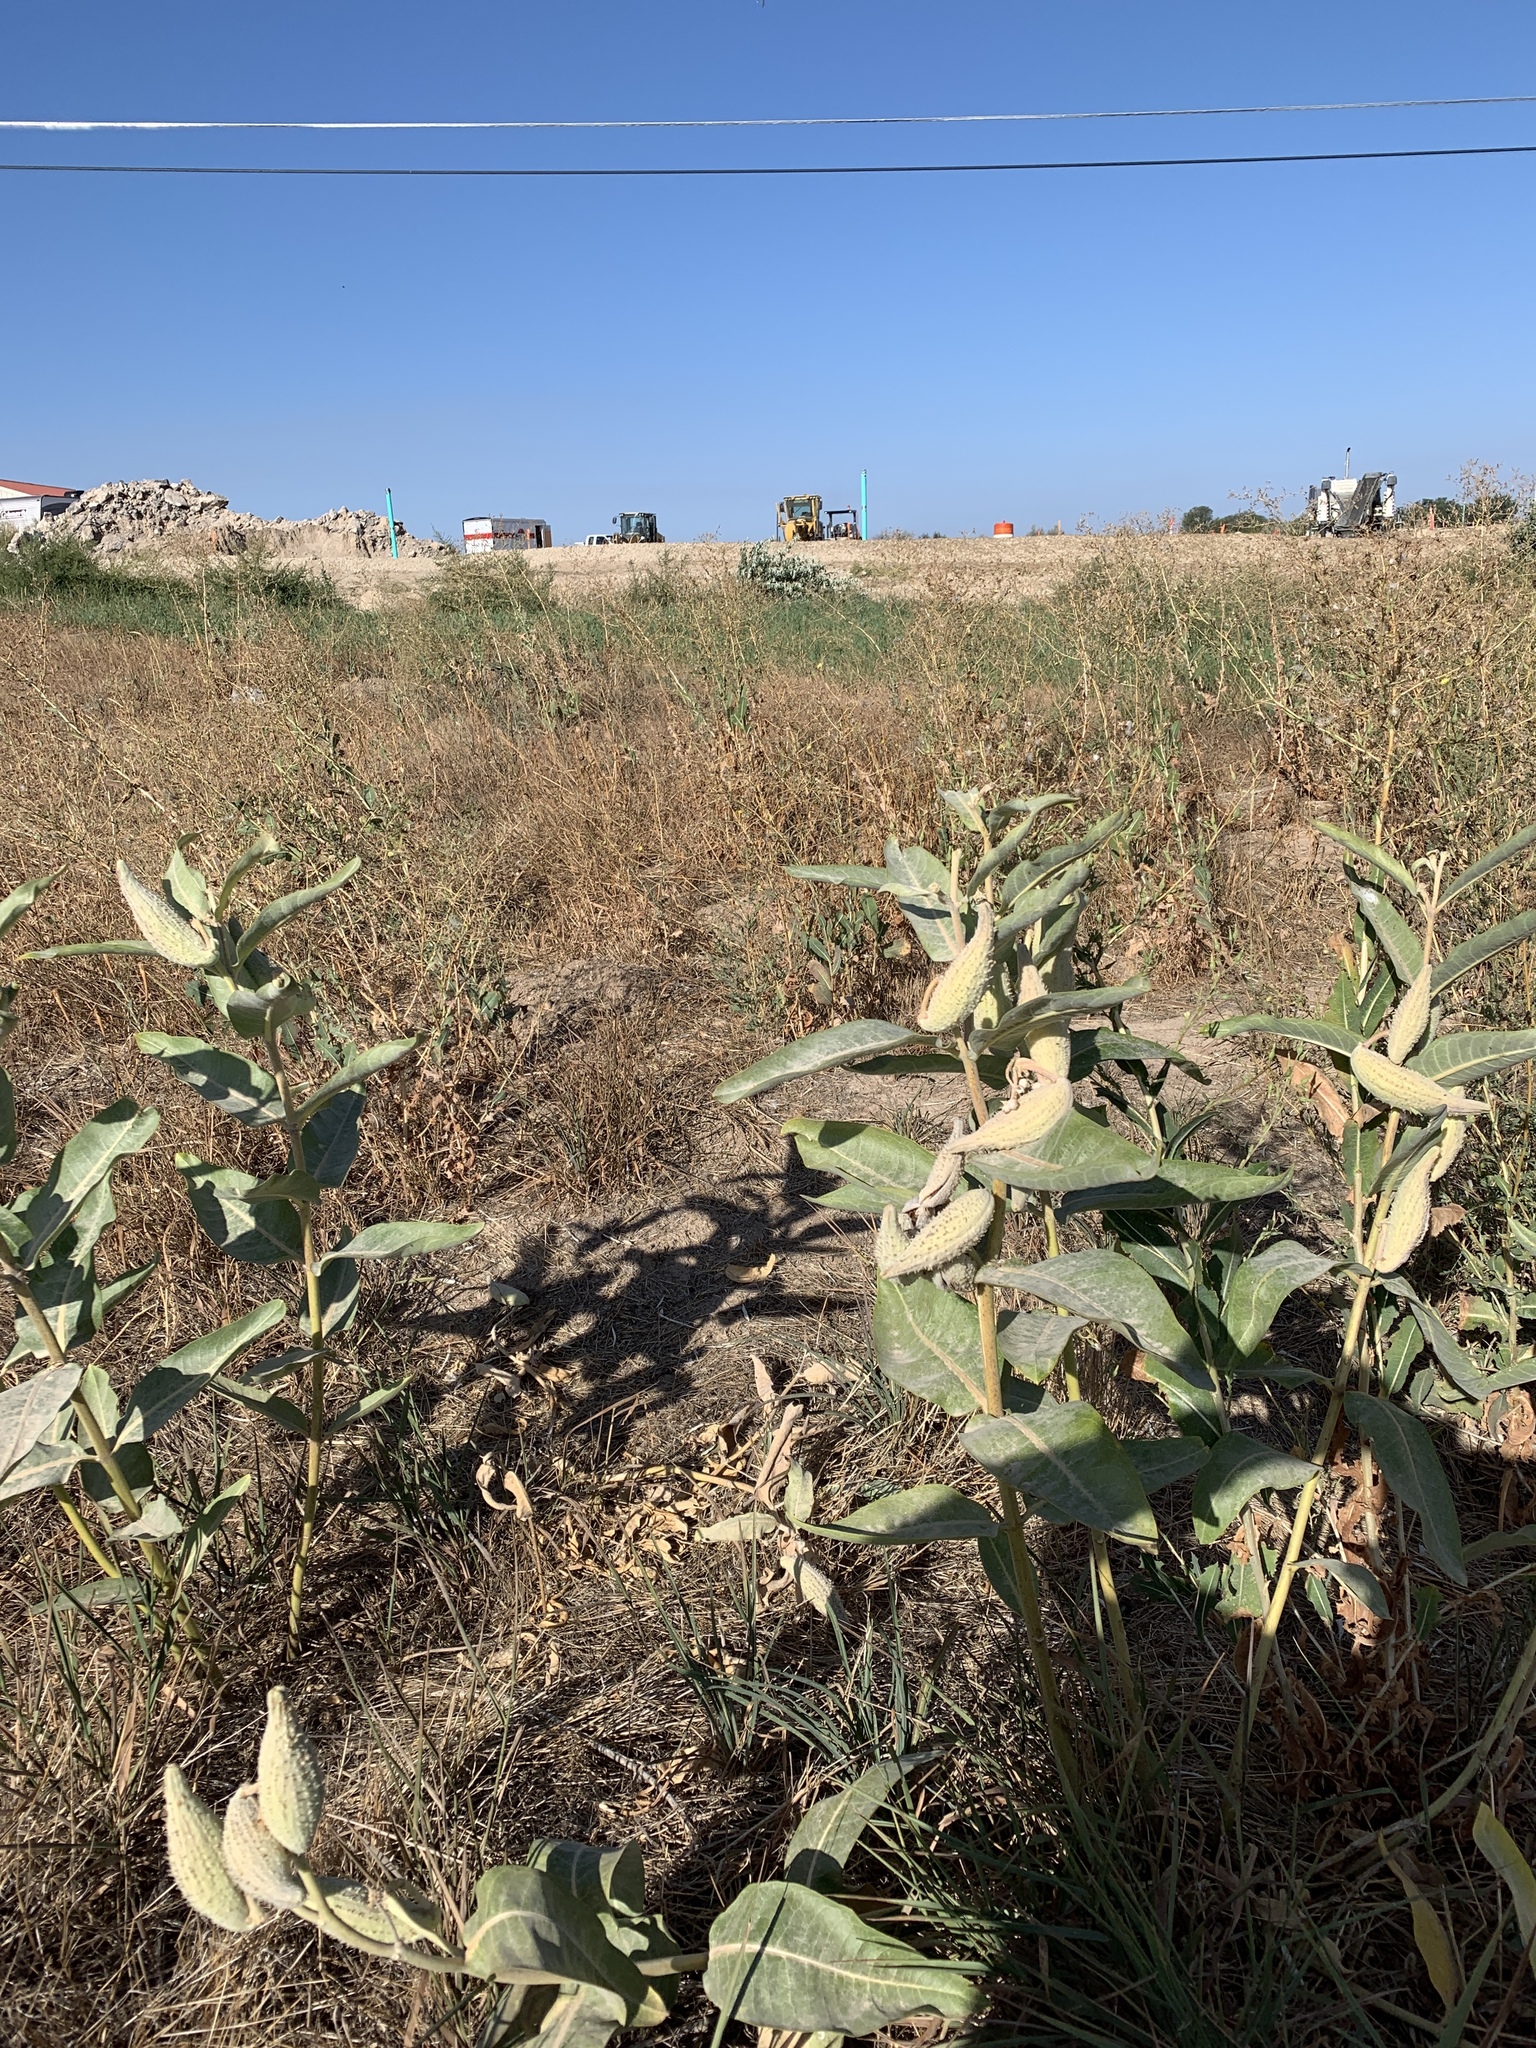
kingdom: Plantae
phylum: Tracheophyta
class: Magnoliopsida
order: Gentianales
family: Apocynaceae
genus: Asclepias
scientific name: Asclepias speciosa
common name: Showy milkweed
